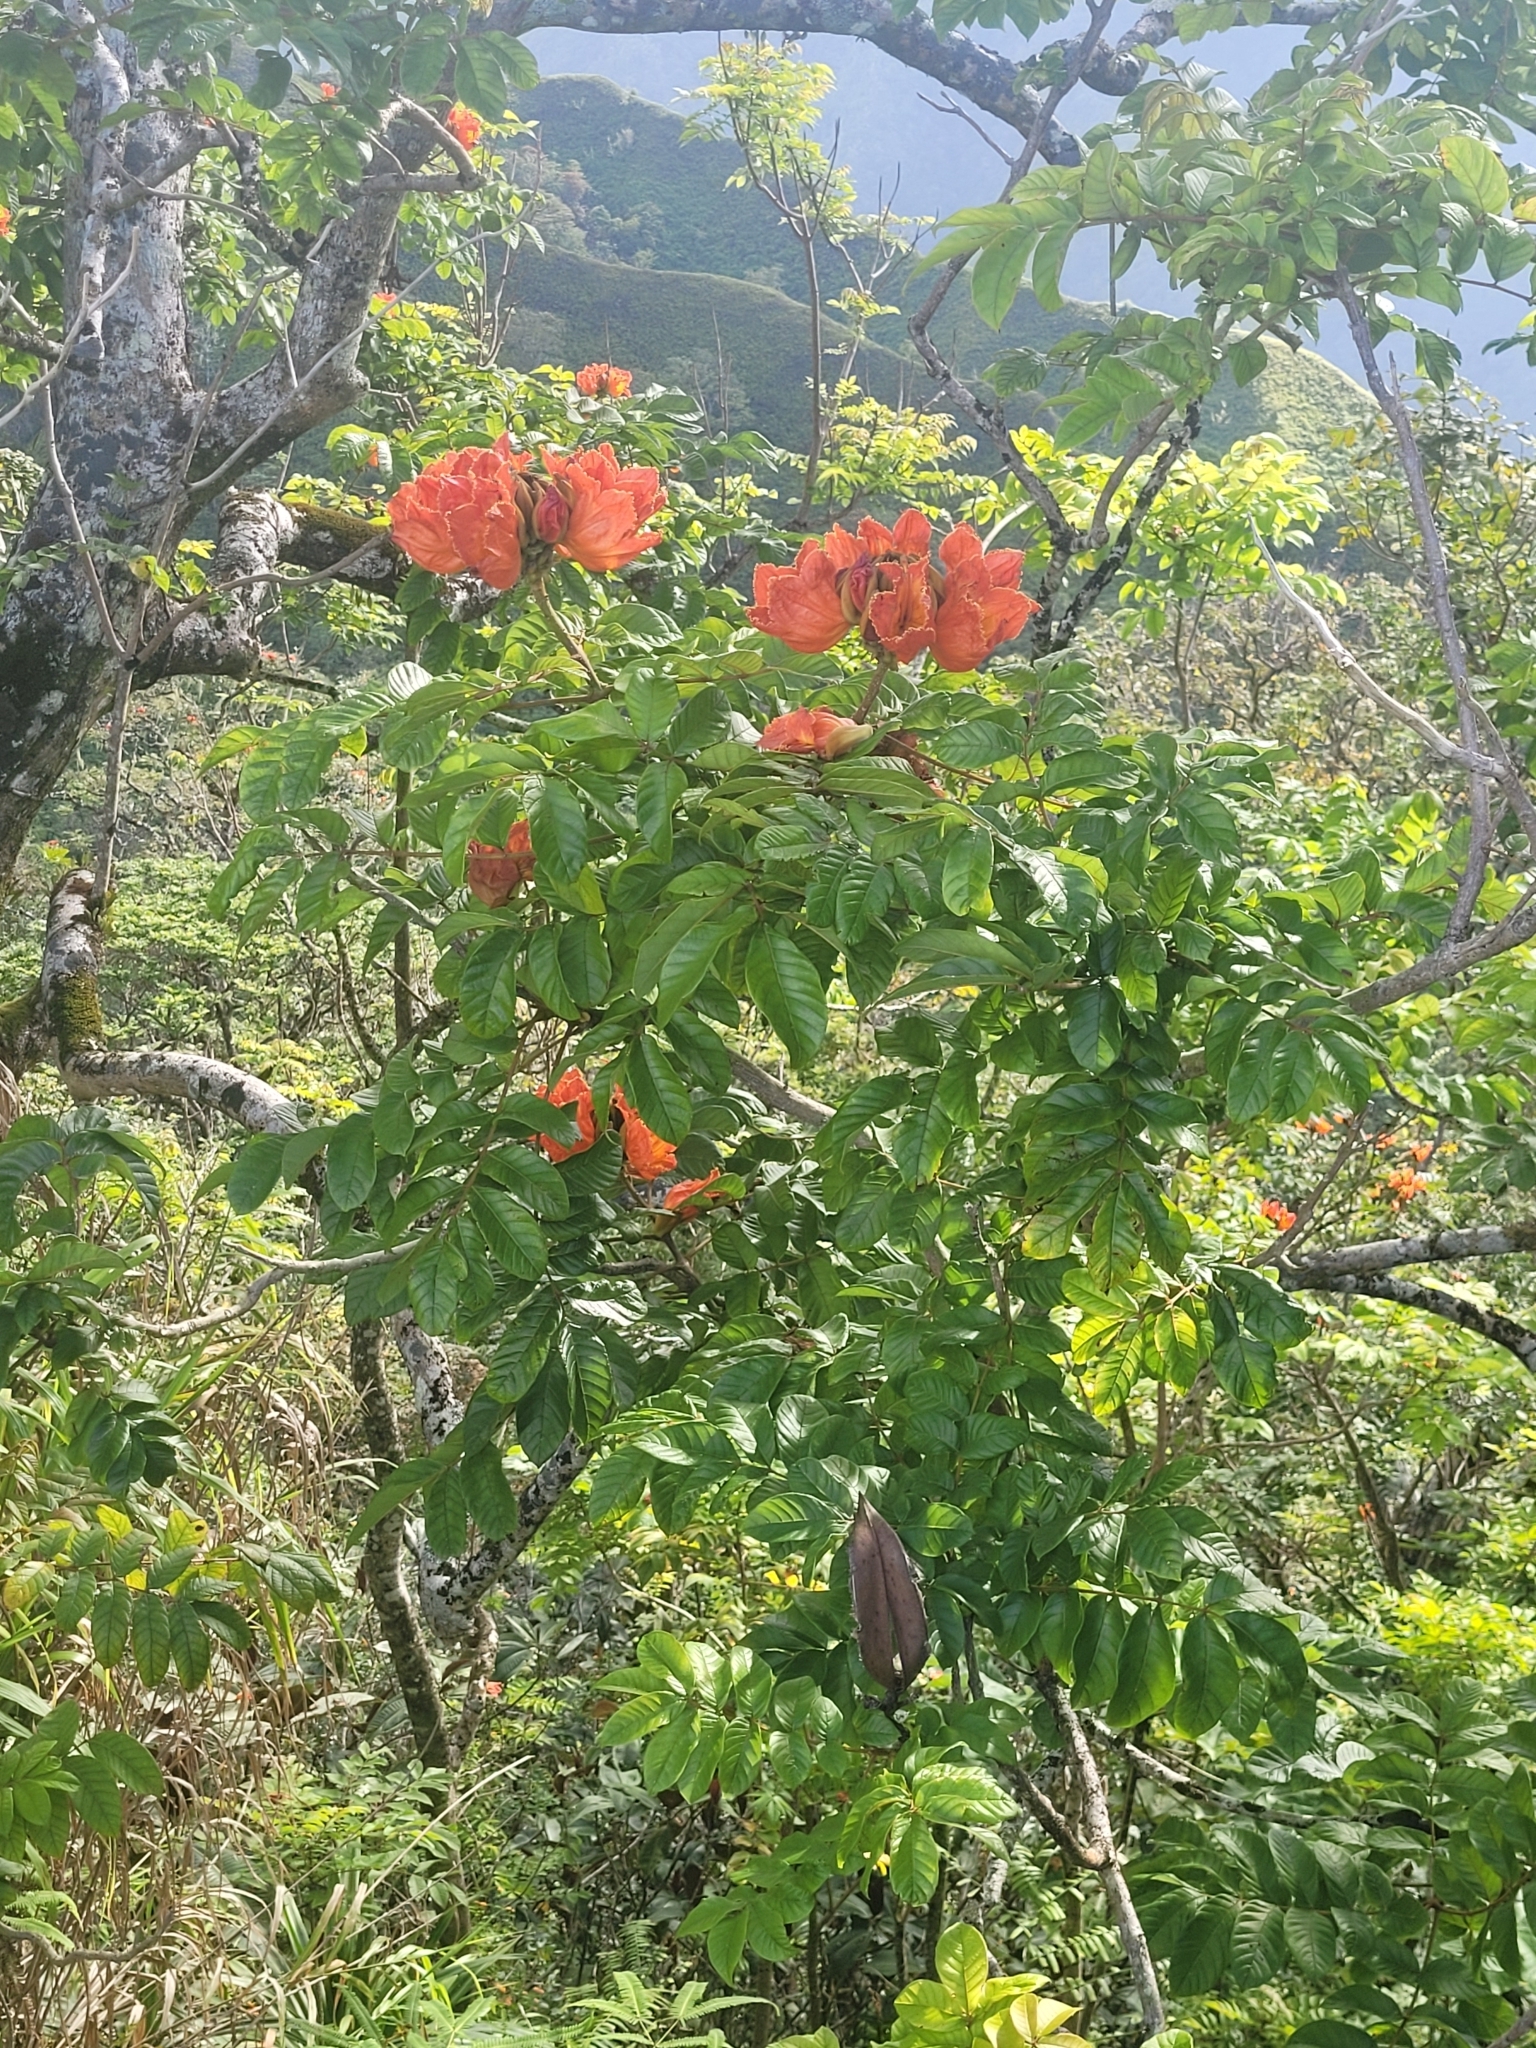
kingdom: Plantae
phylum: Tracheophyta
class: Magnoliopsida
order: Lamiales
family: Bignoniaceae
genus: Spathodea
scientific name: Spathodea campanulata
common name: African tuliptree
